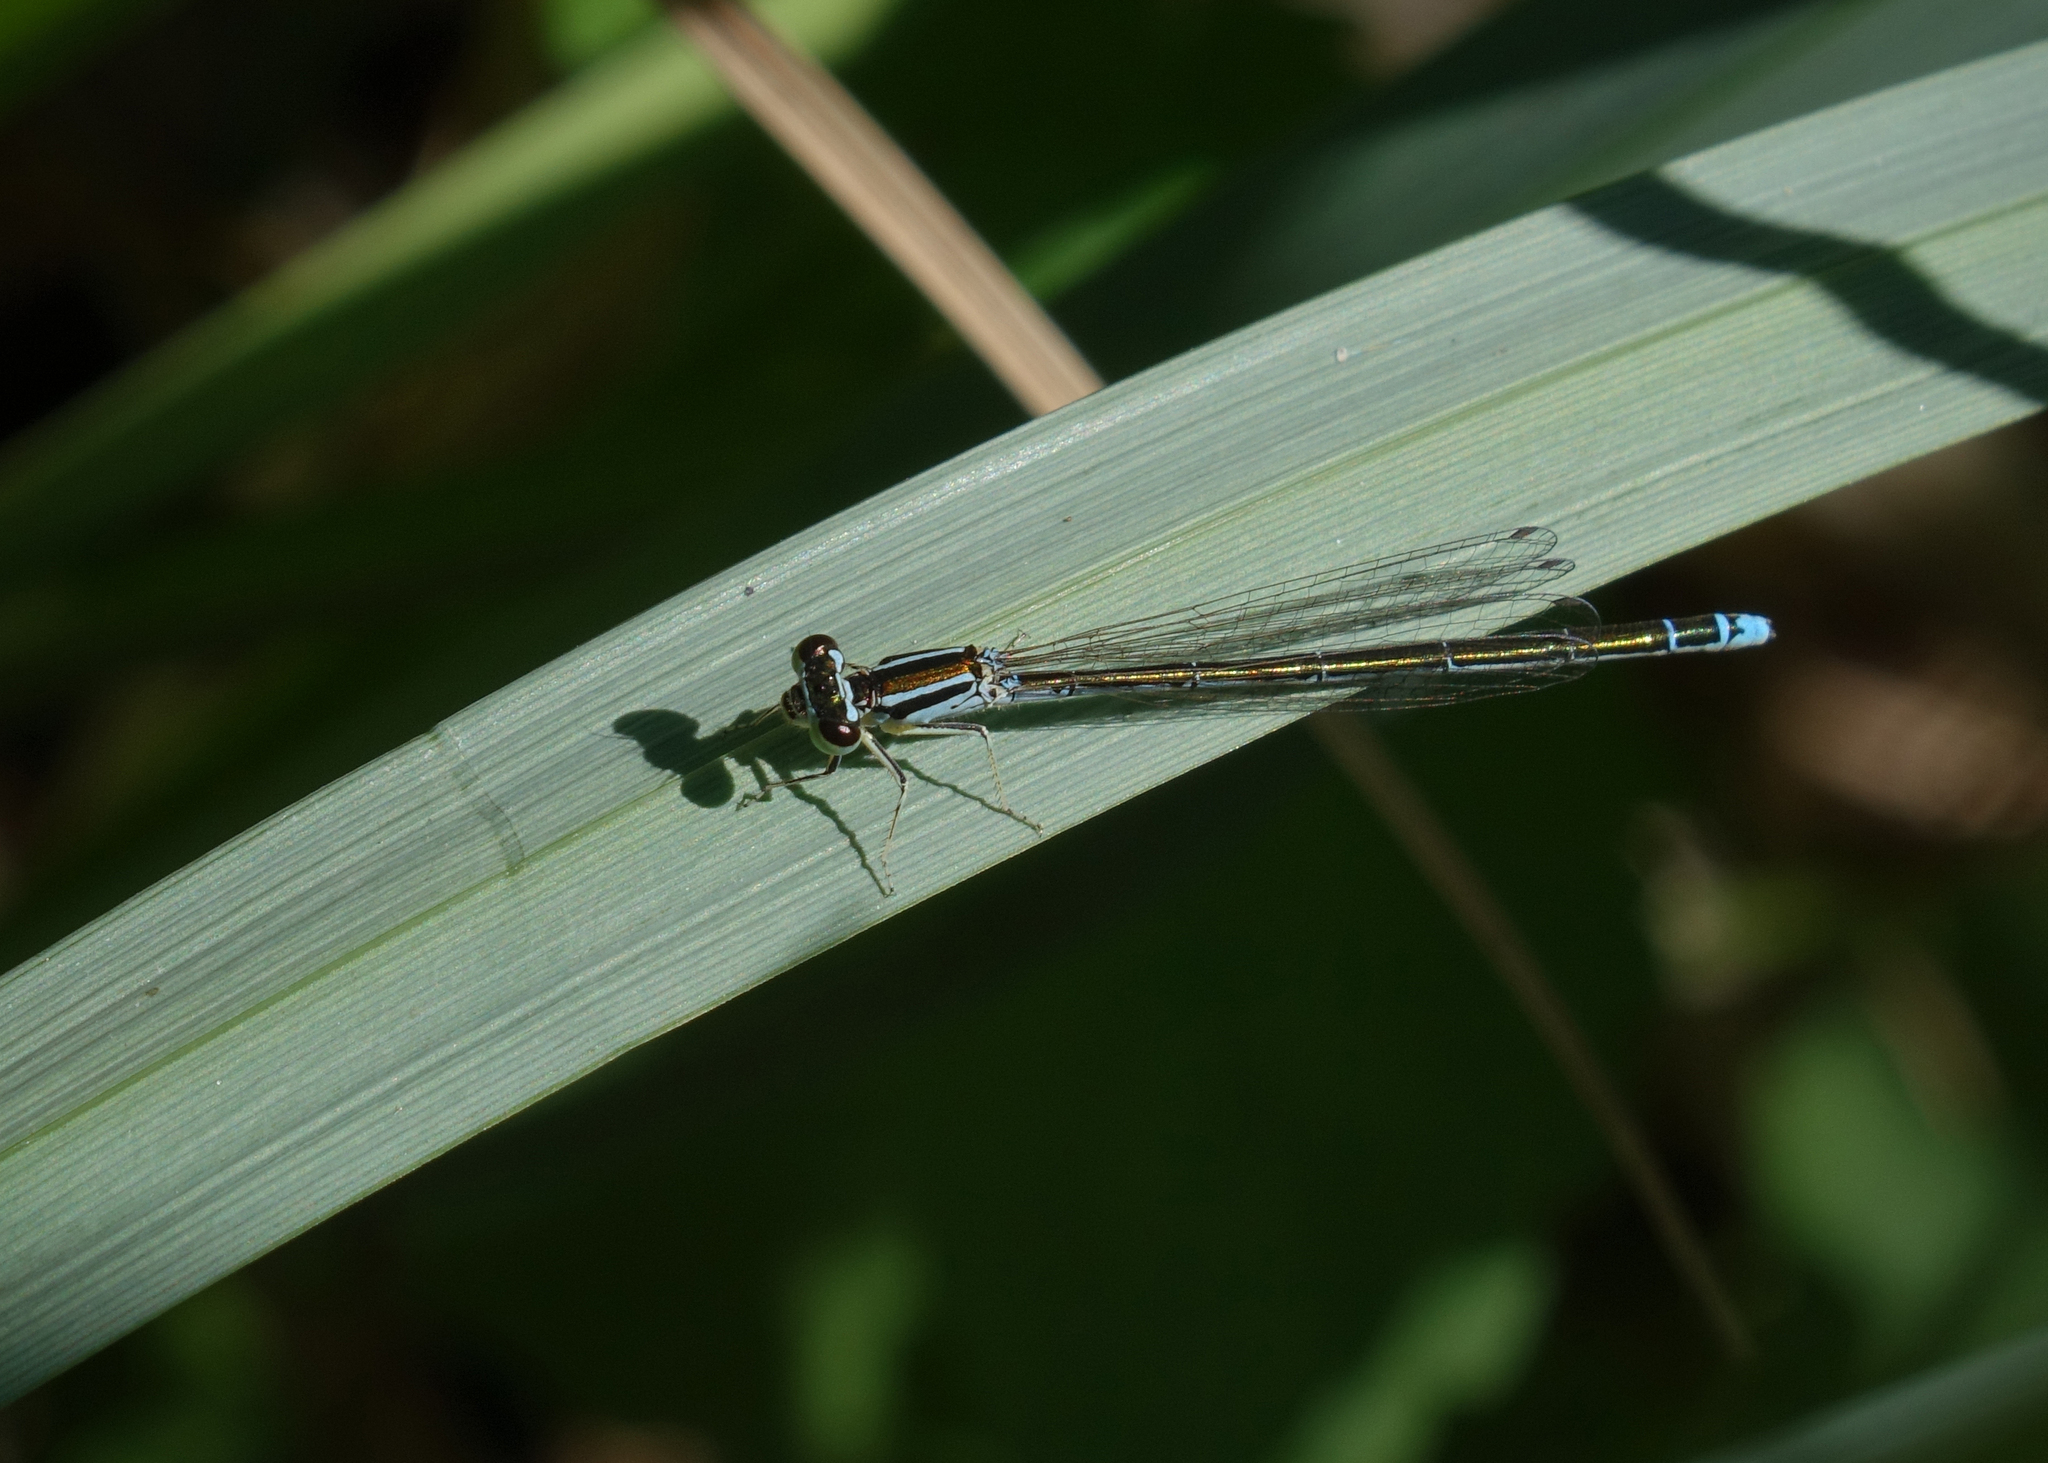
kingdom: Animalia
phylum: Arthropoda
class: Insecta
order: Odonata
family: Coenagrionidae
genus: Coenagrion
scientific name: Coenagrion ecornutum
